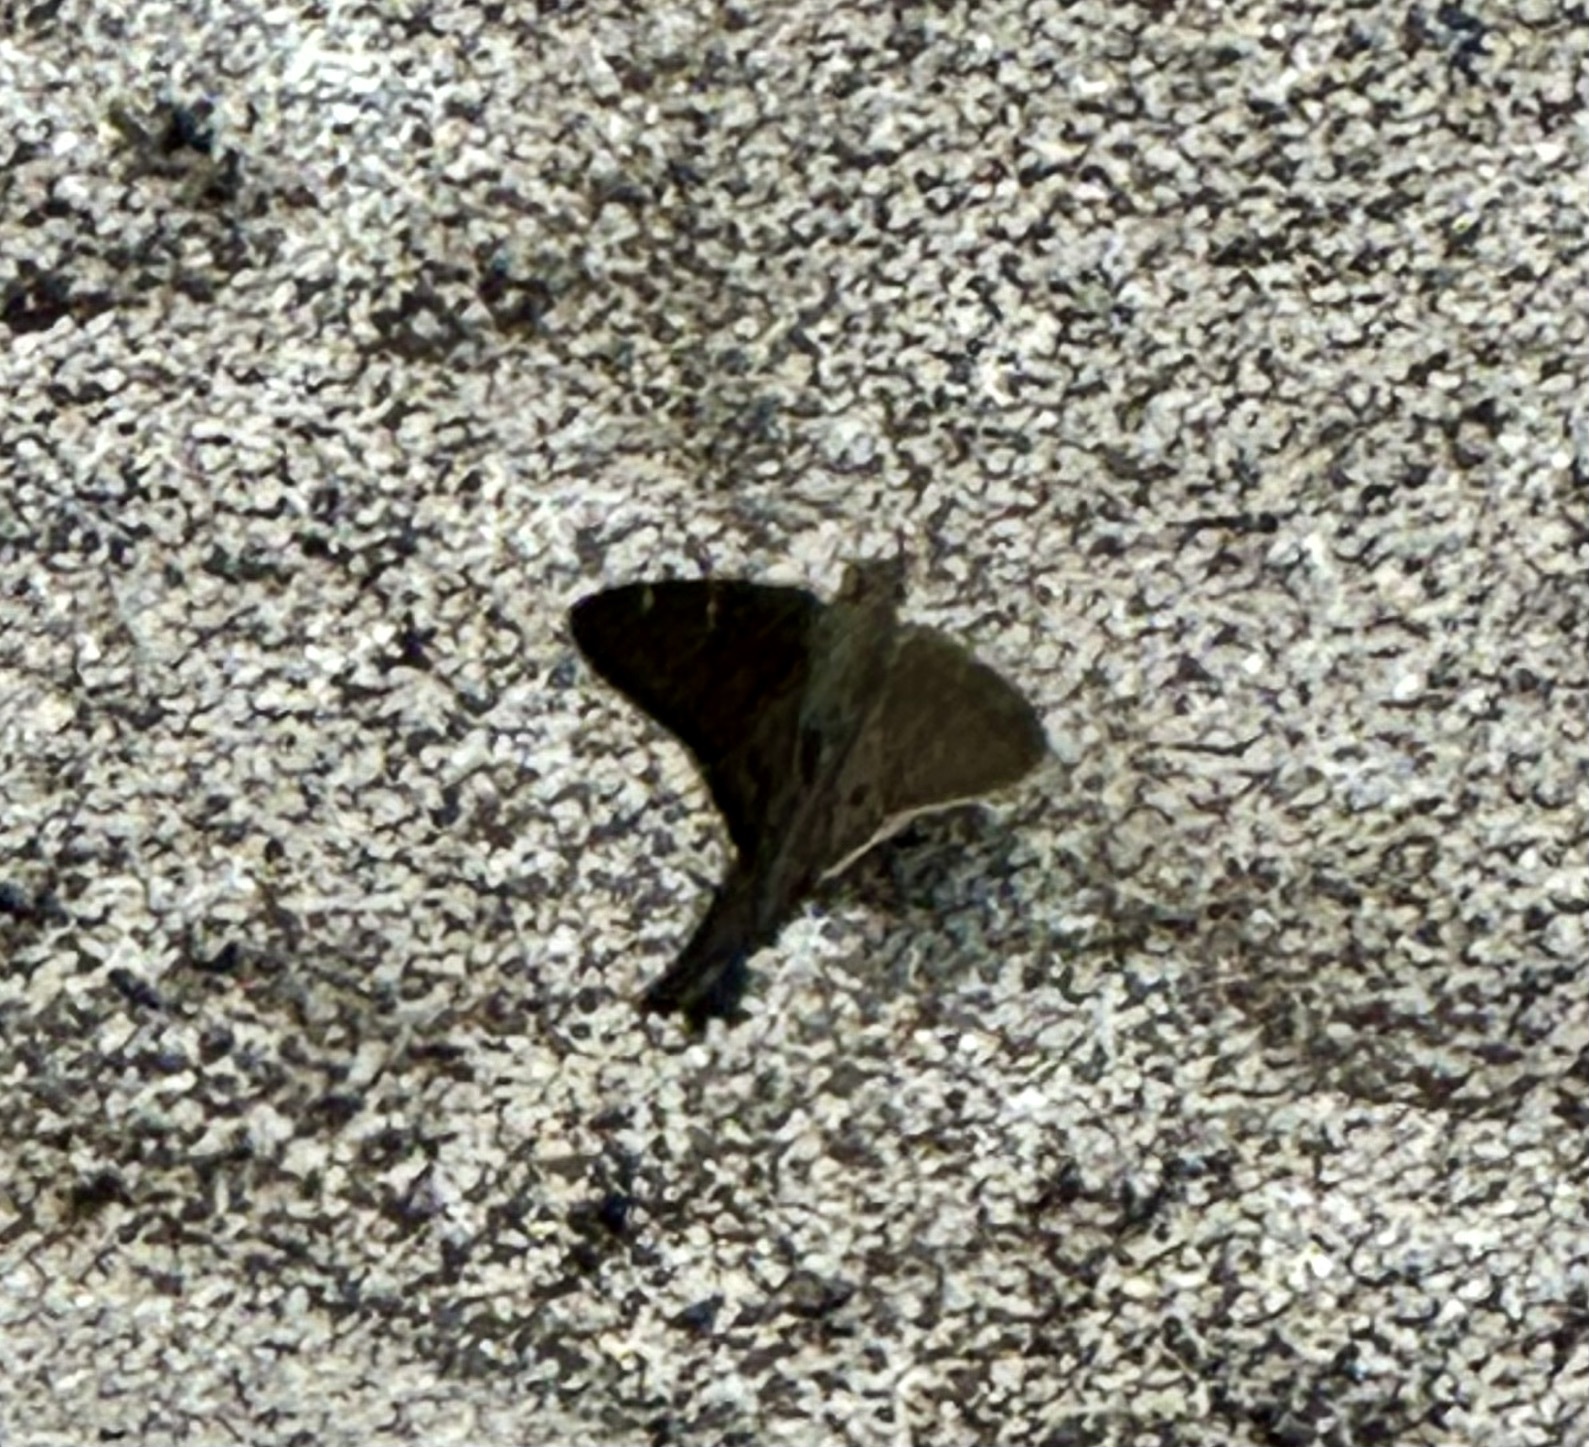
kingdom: Animalia
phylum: Arthropoda
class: Insecta
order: Lepidoptera
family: Hesperiidae
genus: Urbanus
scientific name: Urbanus procne
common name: Brown longtail
